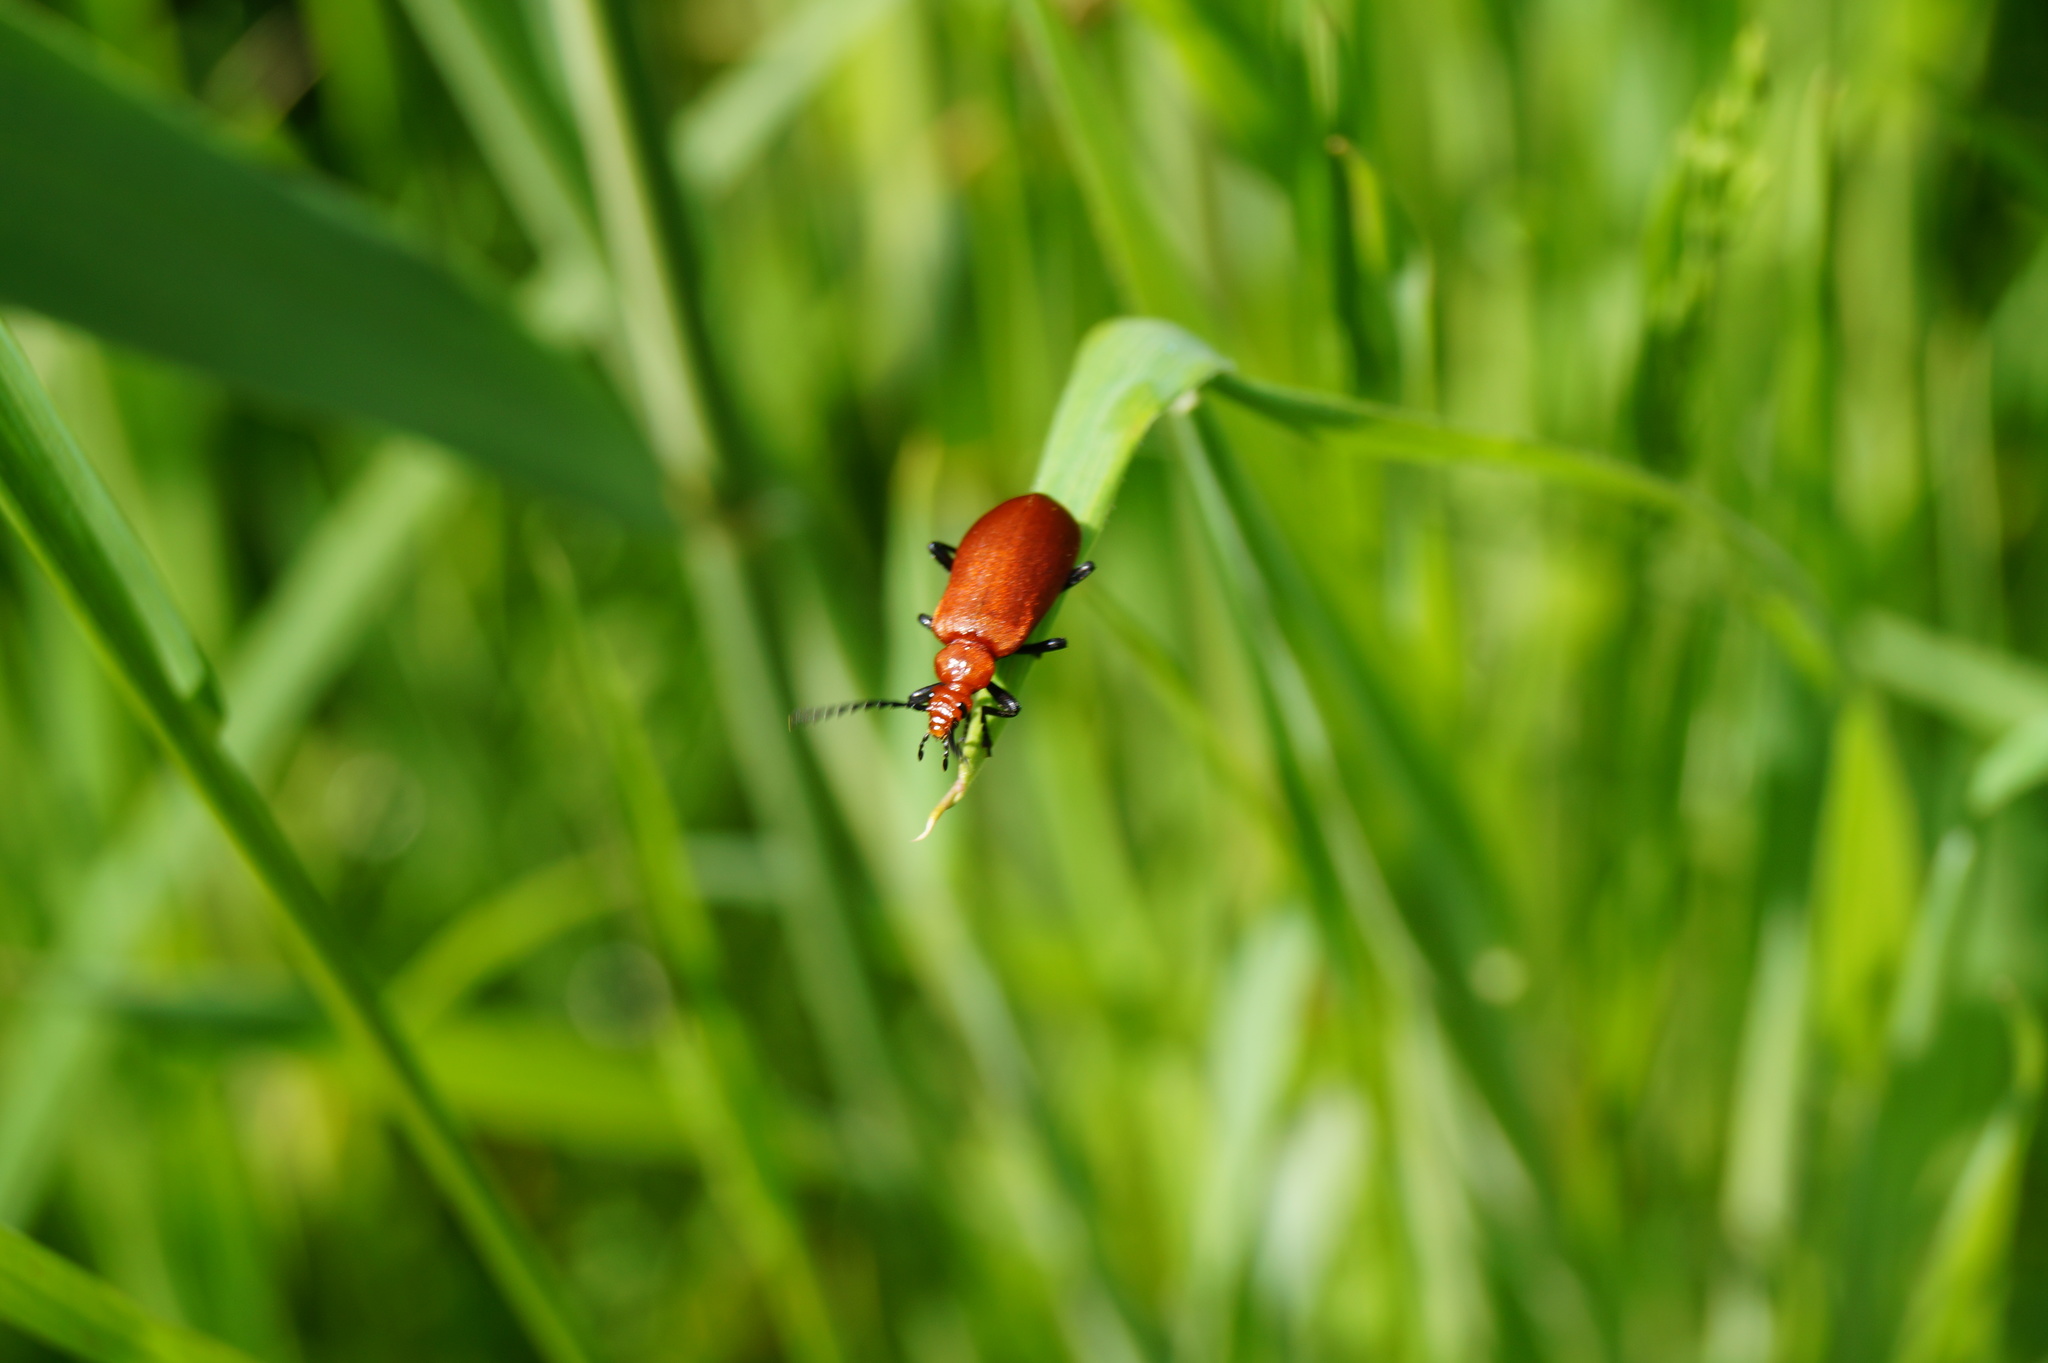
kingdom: Animalia
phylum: Arthropoda
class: Insecta
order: Coleoptera
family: Pyrochroidae
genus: Pyrochroa
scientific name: Pyrochroa serraticornis
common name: Red-headed cardinal beetle
